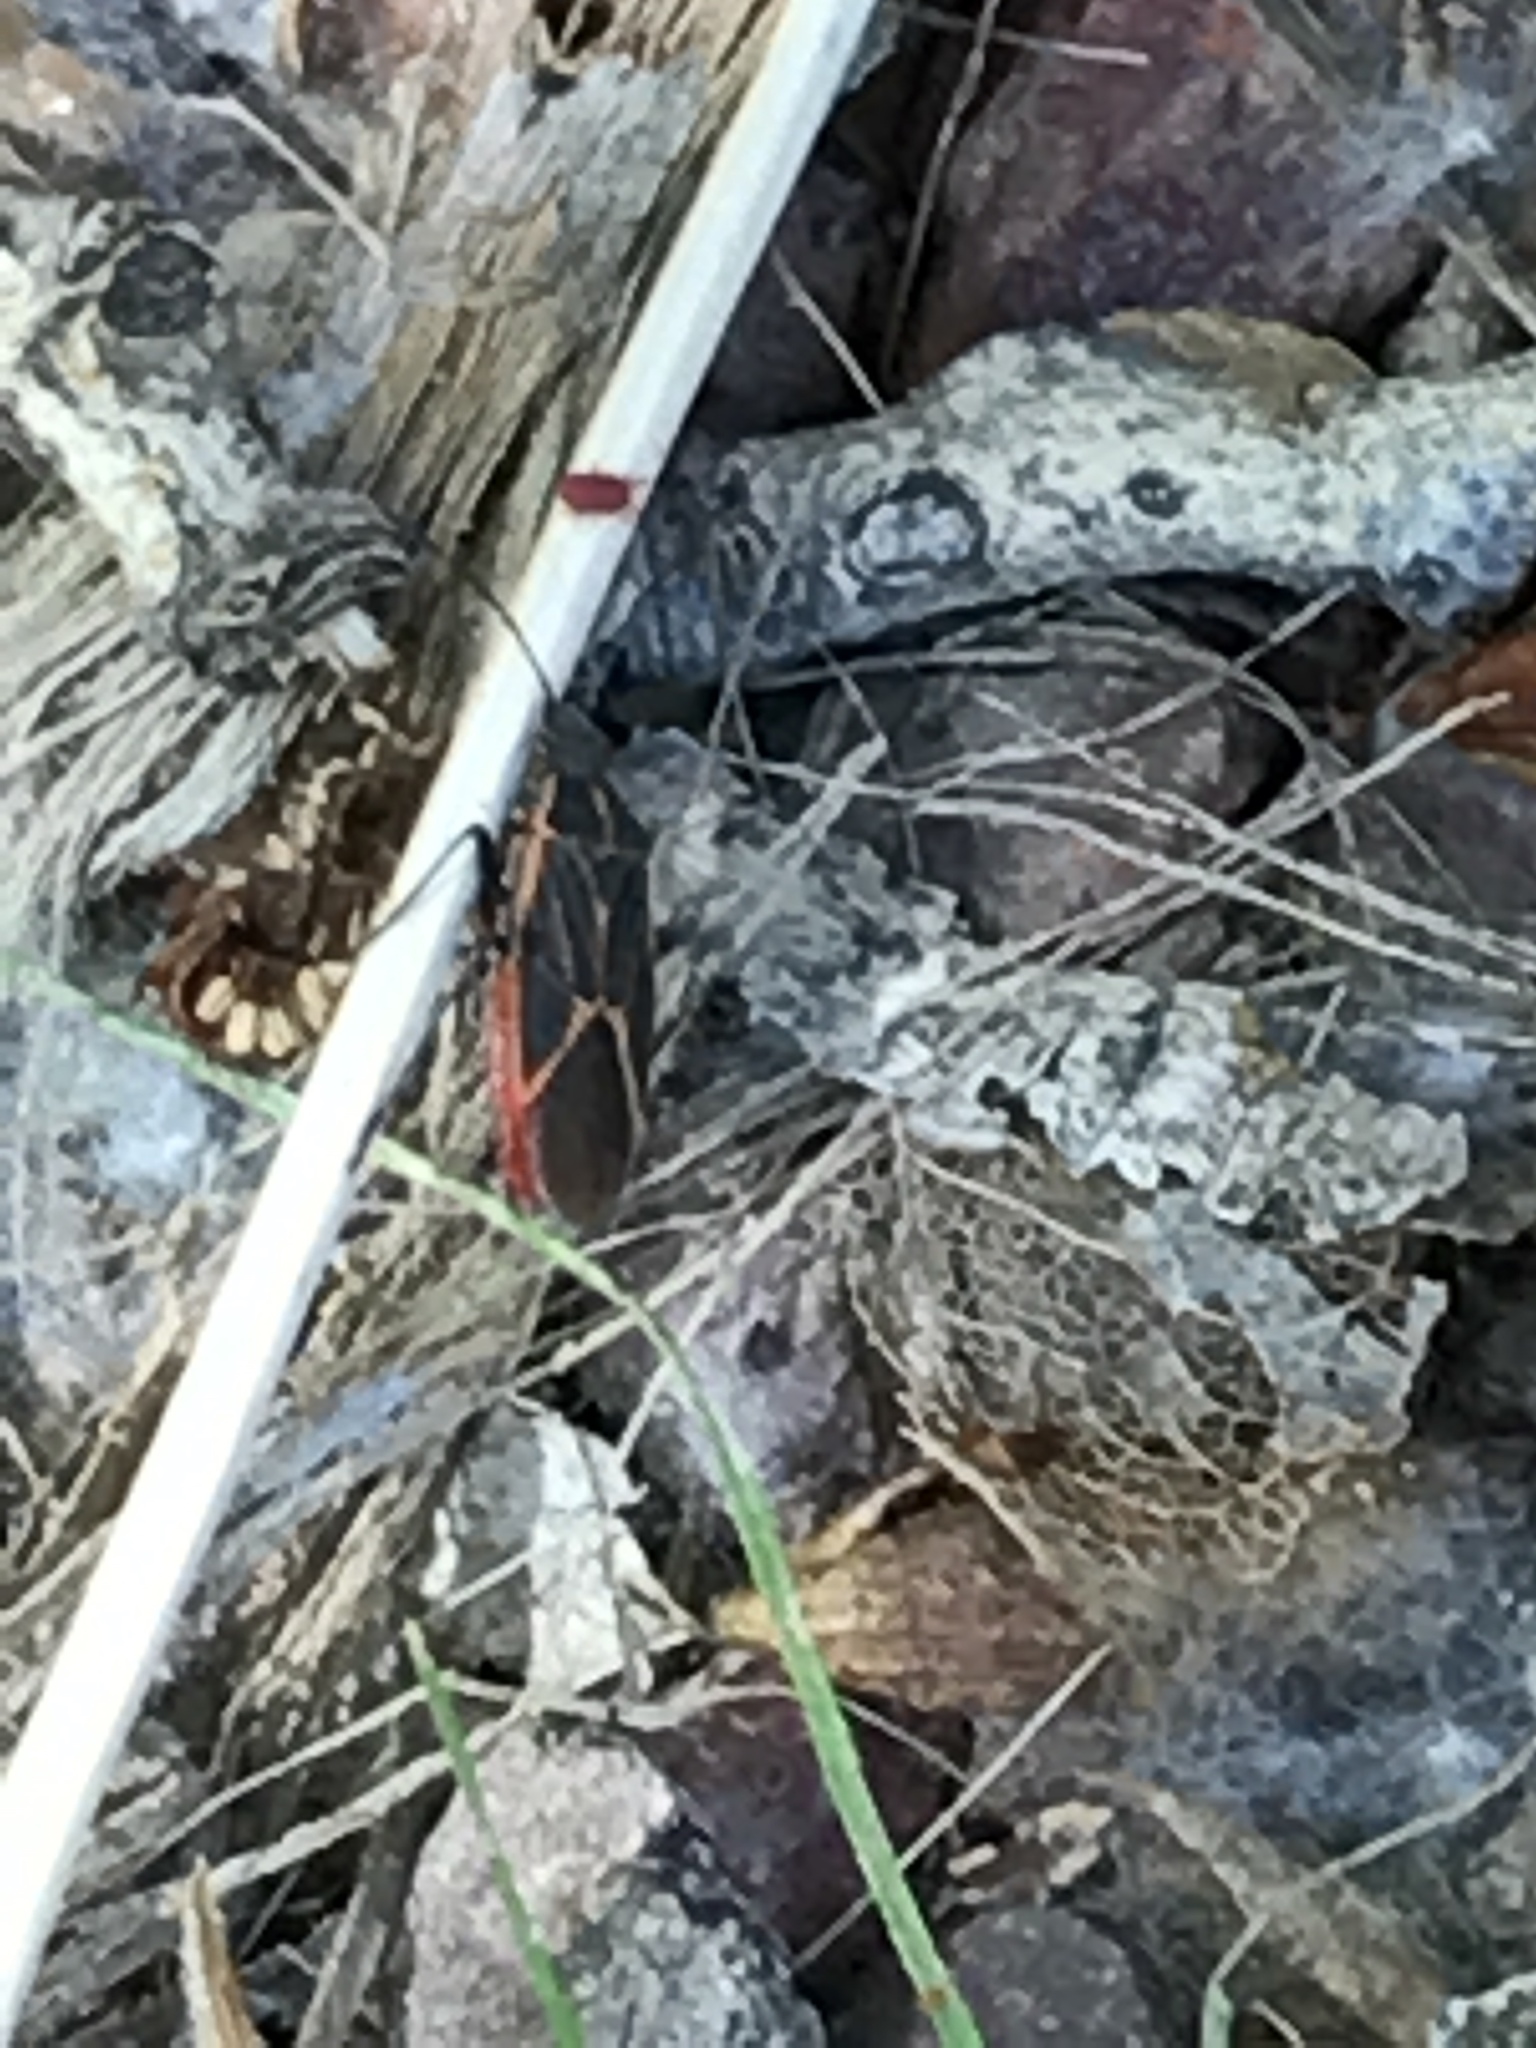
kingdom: Animalia
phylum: Arthropoda
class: Insecta
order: Hemiptera
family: Rhopalidae
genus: Boisea
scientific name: Boisea trivittata
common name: Boxelder bug
